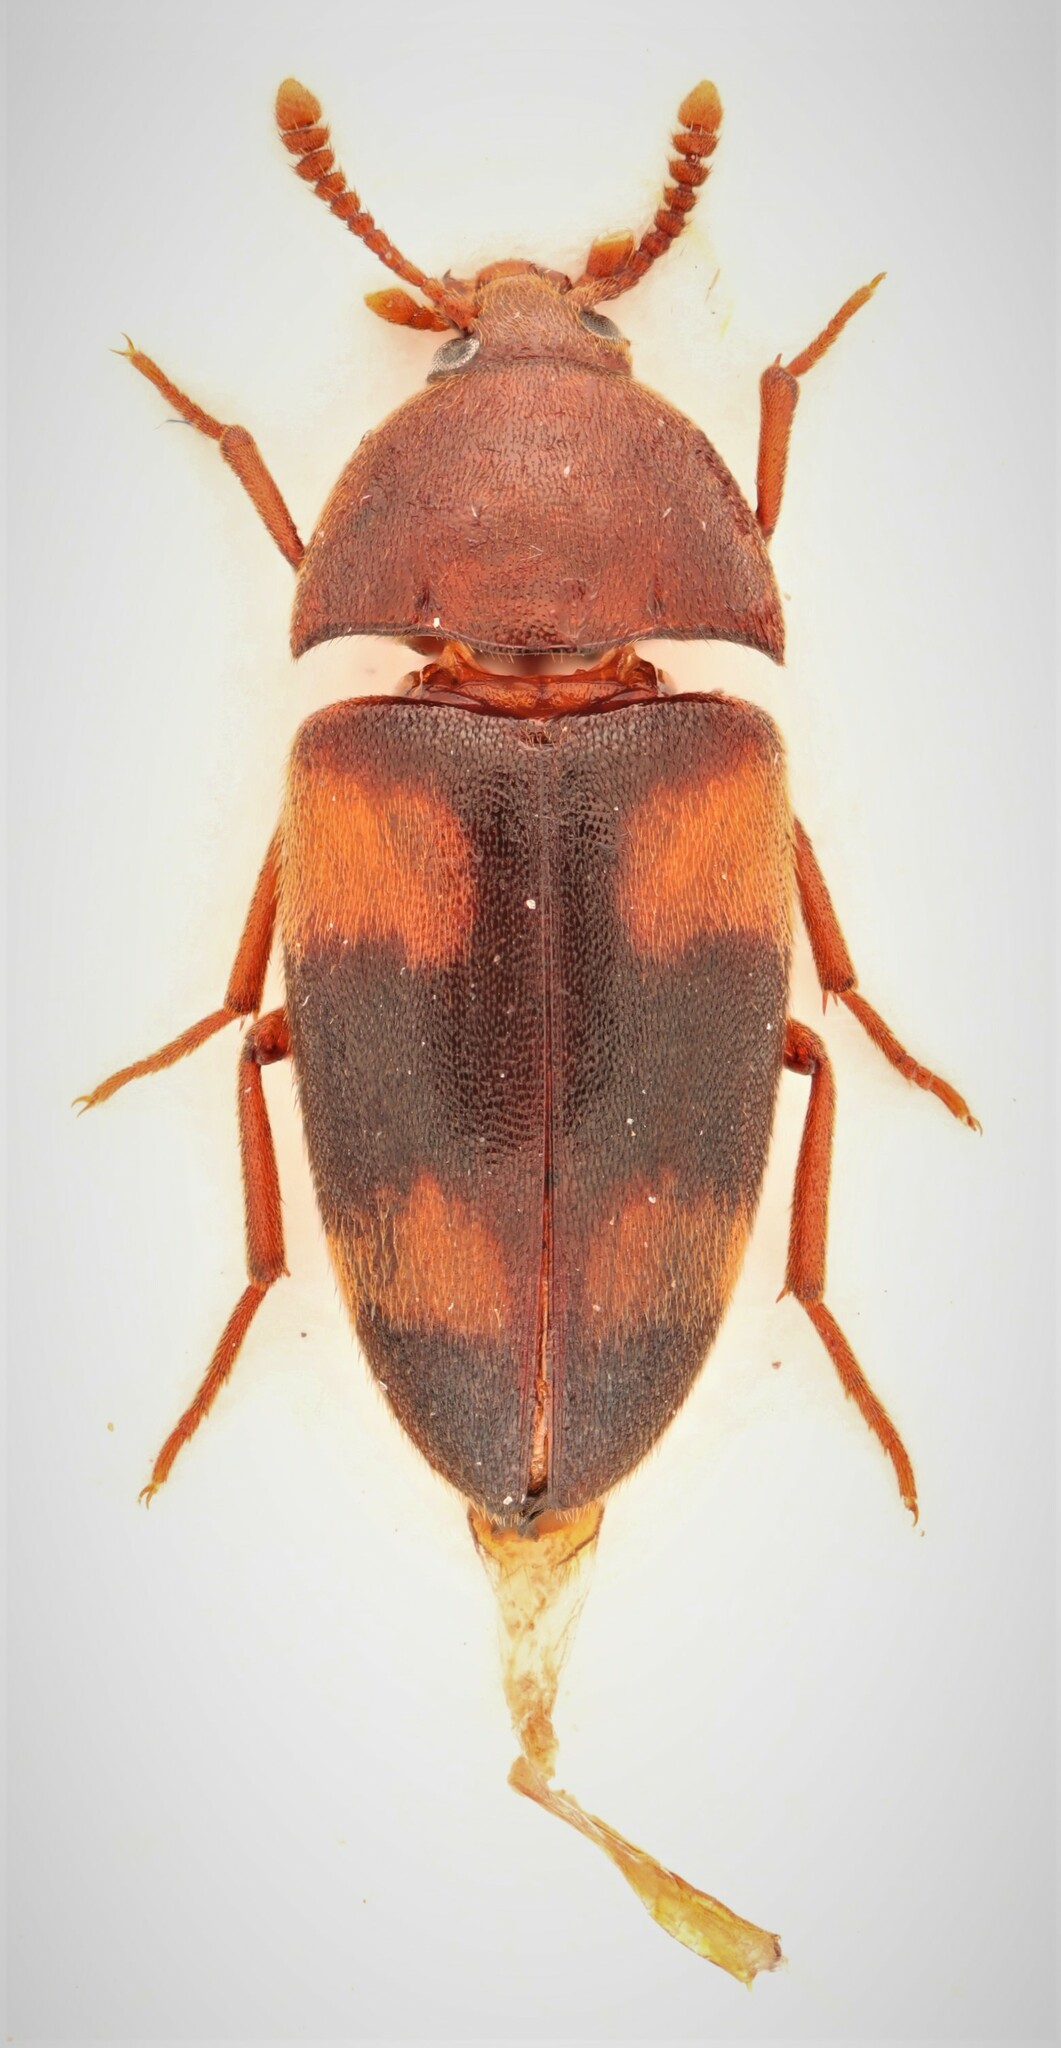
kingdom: Animalia
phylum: Arthropoda
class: Insecta
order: Coleoptera
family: Tetratomidae
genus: Holostrophus
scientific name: Holostrophus bifasciatus
